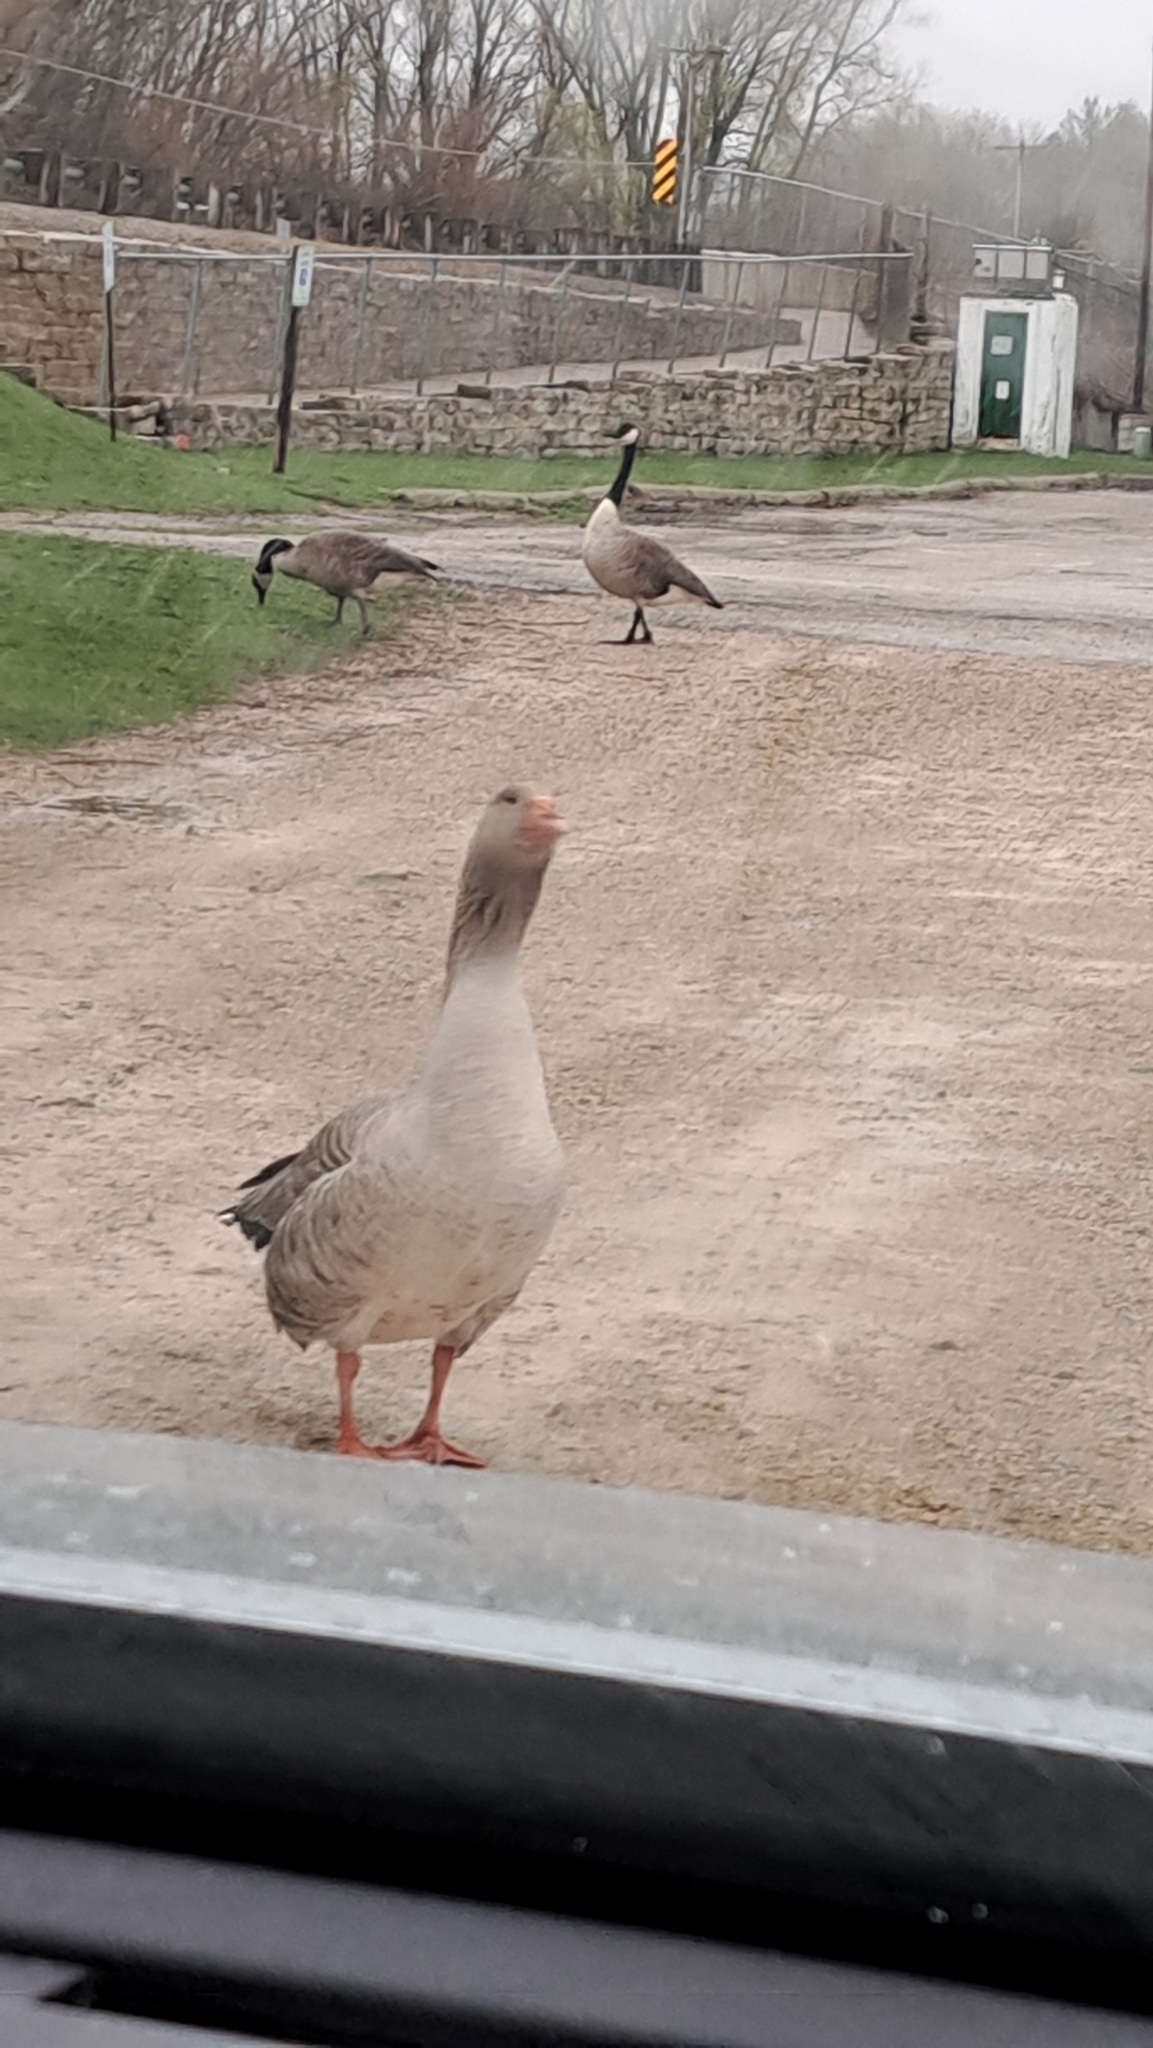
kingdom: Animalia
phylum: Chordata
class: Aves
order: Anseriformes
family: Anatidae
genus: Anser
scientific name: Anser anser
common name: Greylag goose
